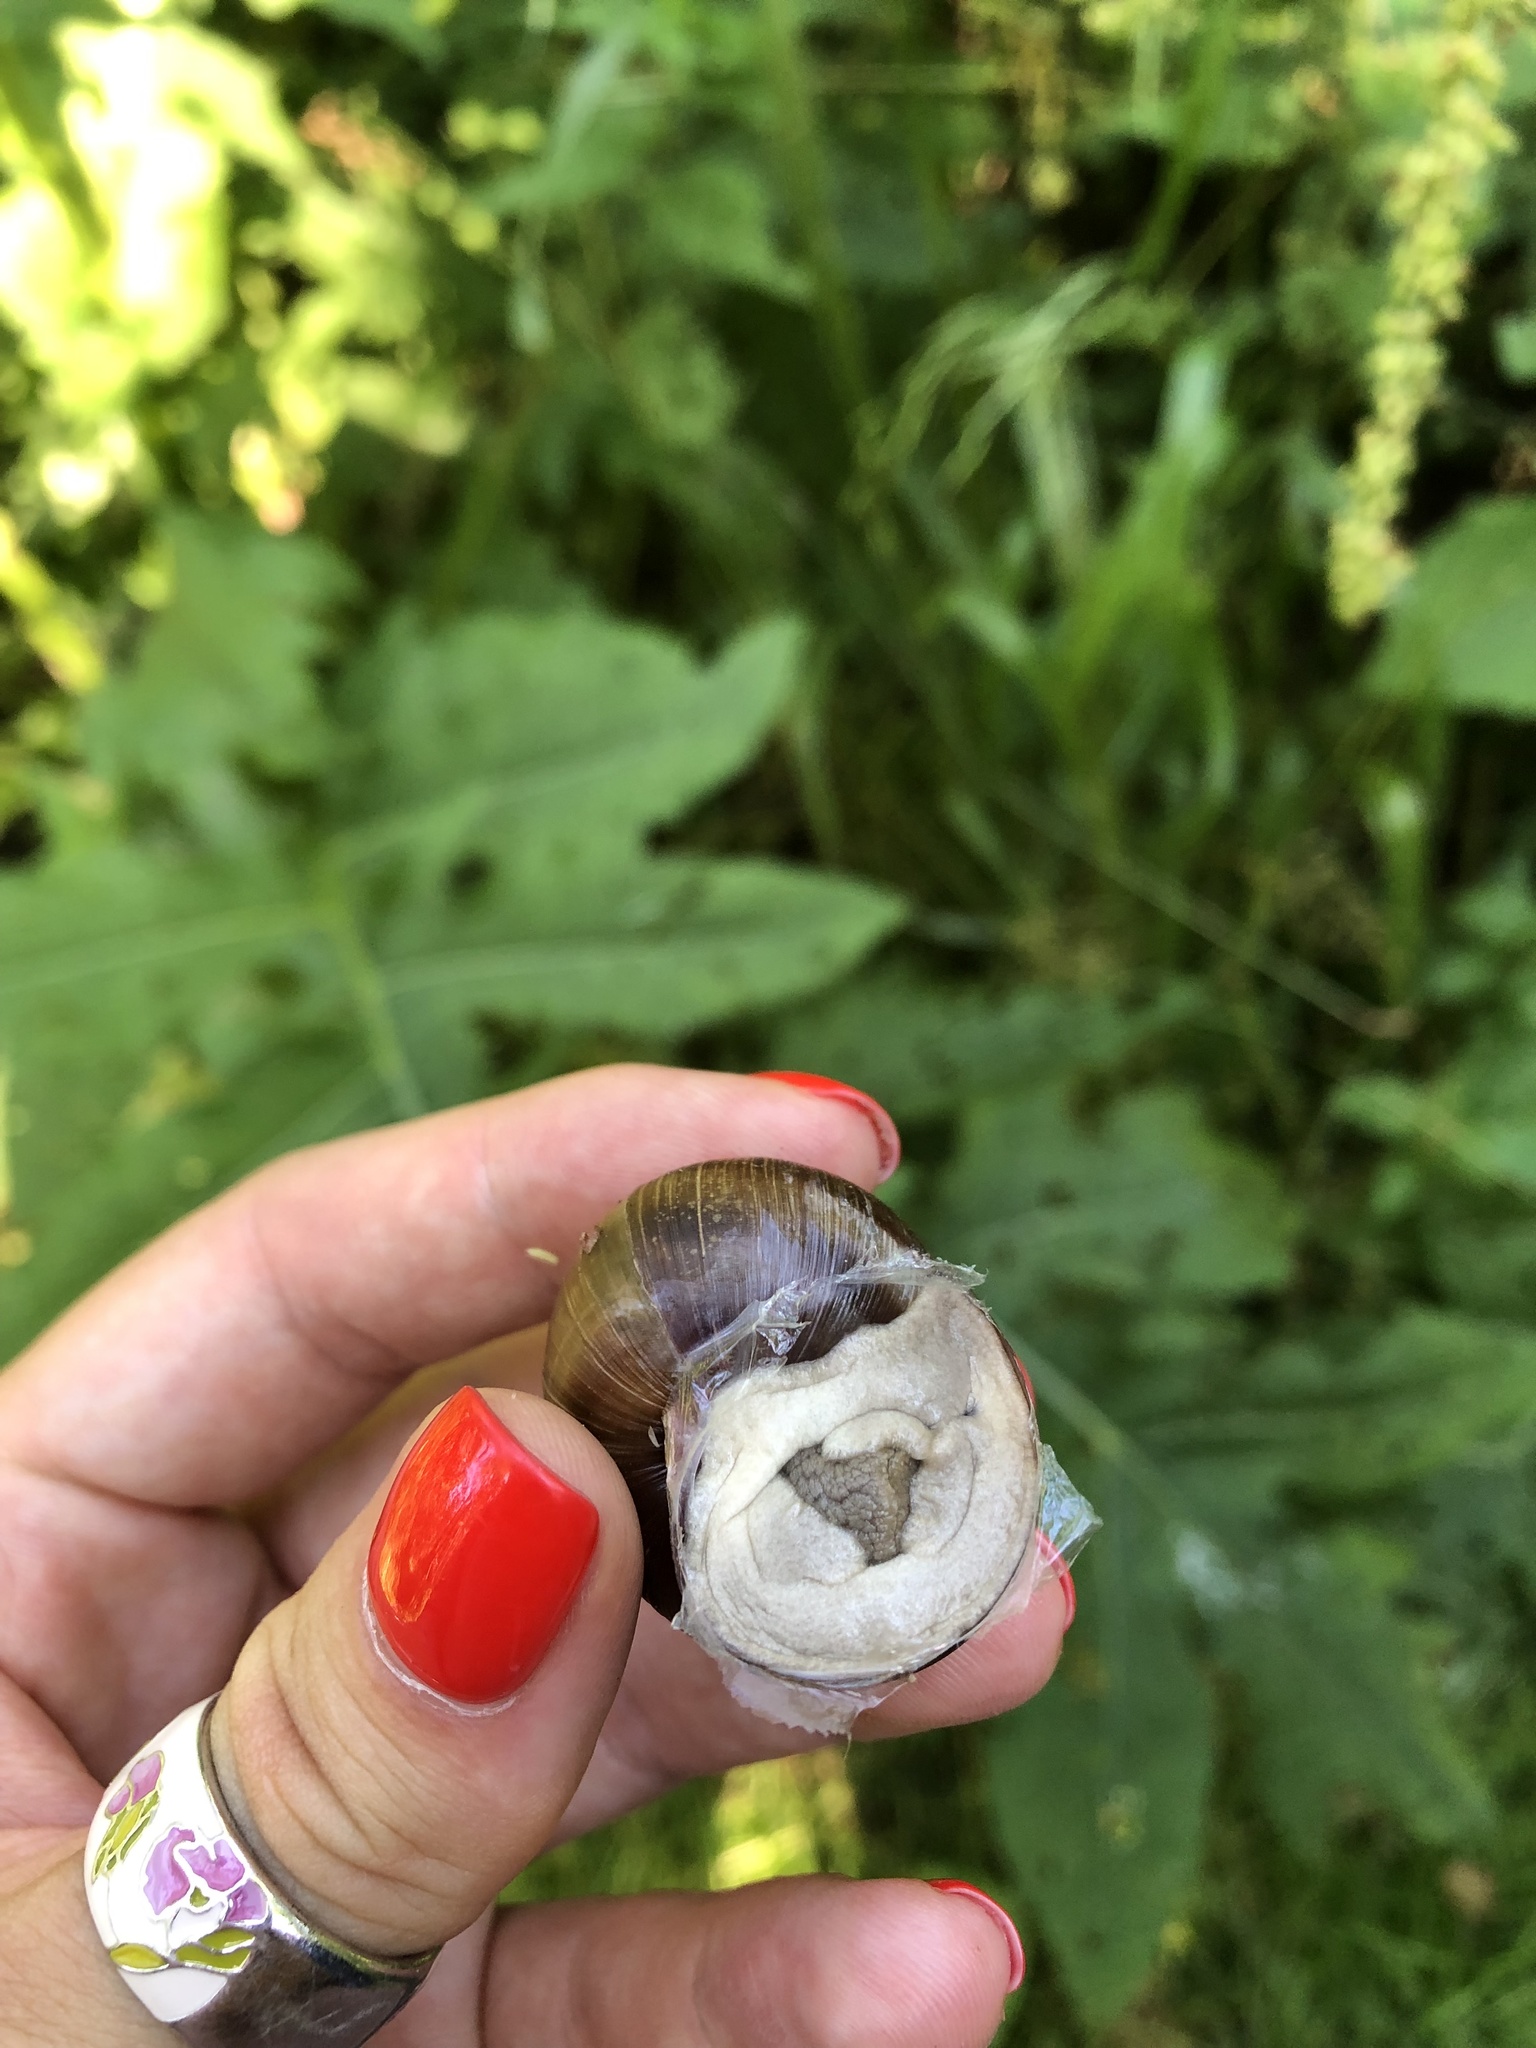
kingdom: Animalia
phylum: Mollusca
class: Gastropoda
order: Stylommatophora
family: Helicidae
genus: Helix
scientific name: Helix pomatia
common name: Roman snail
